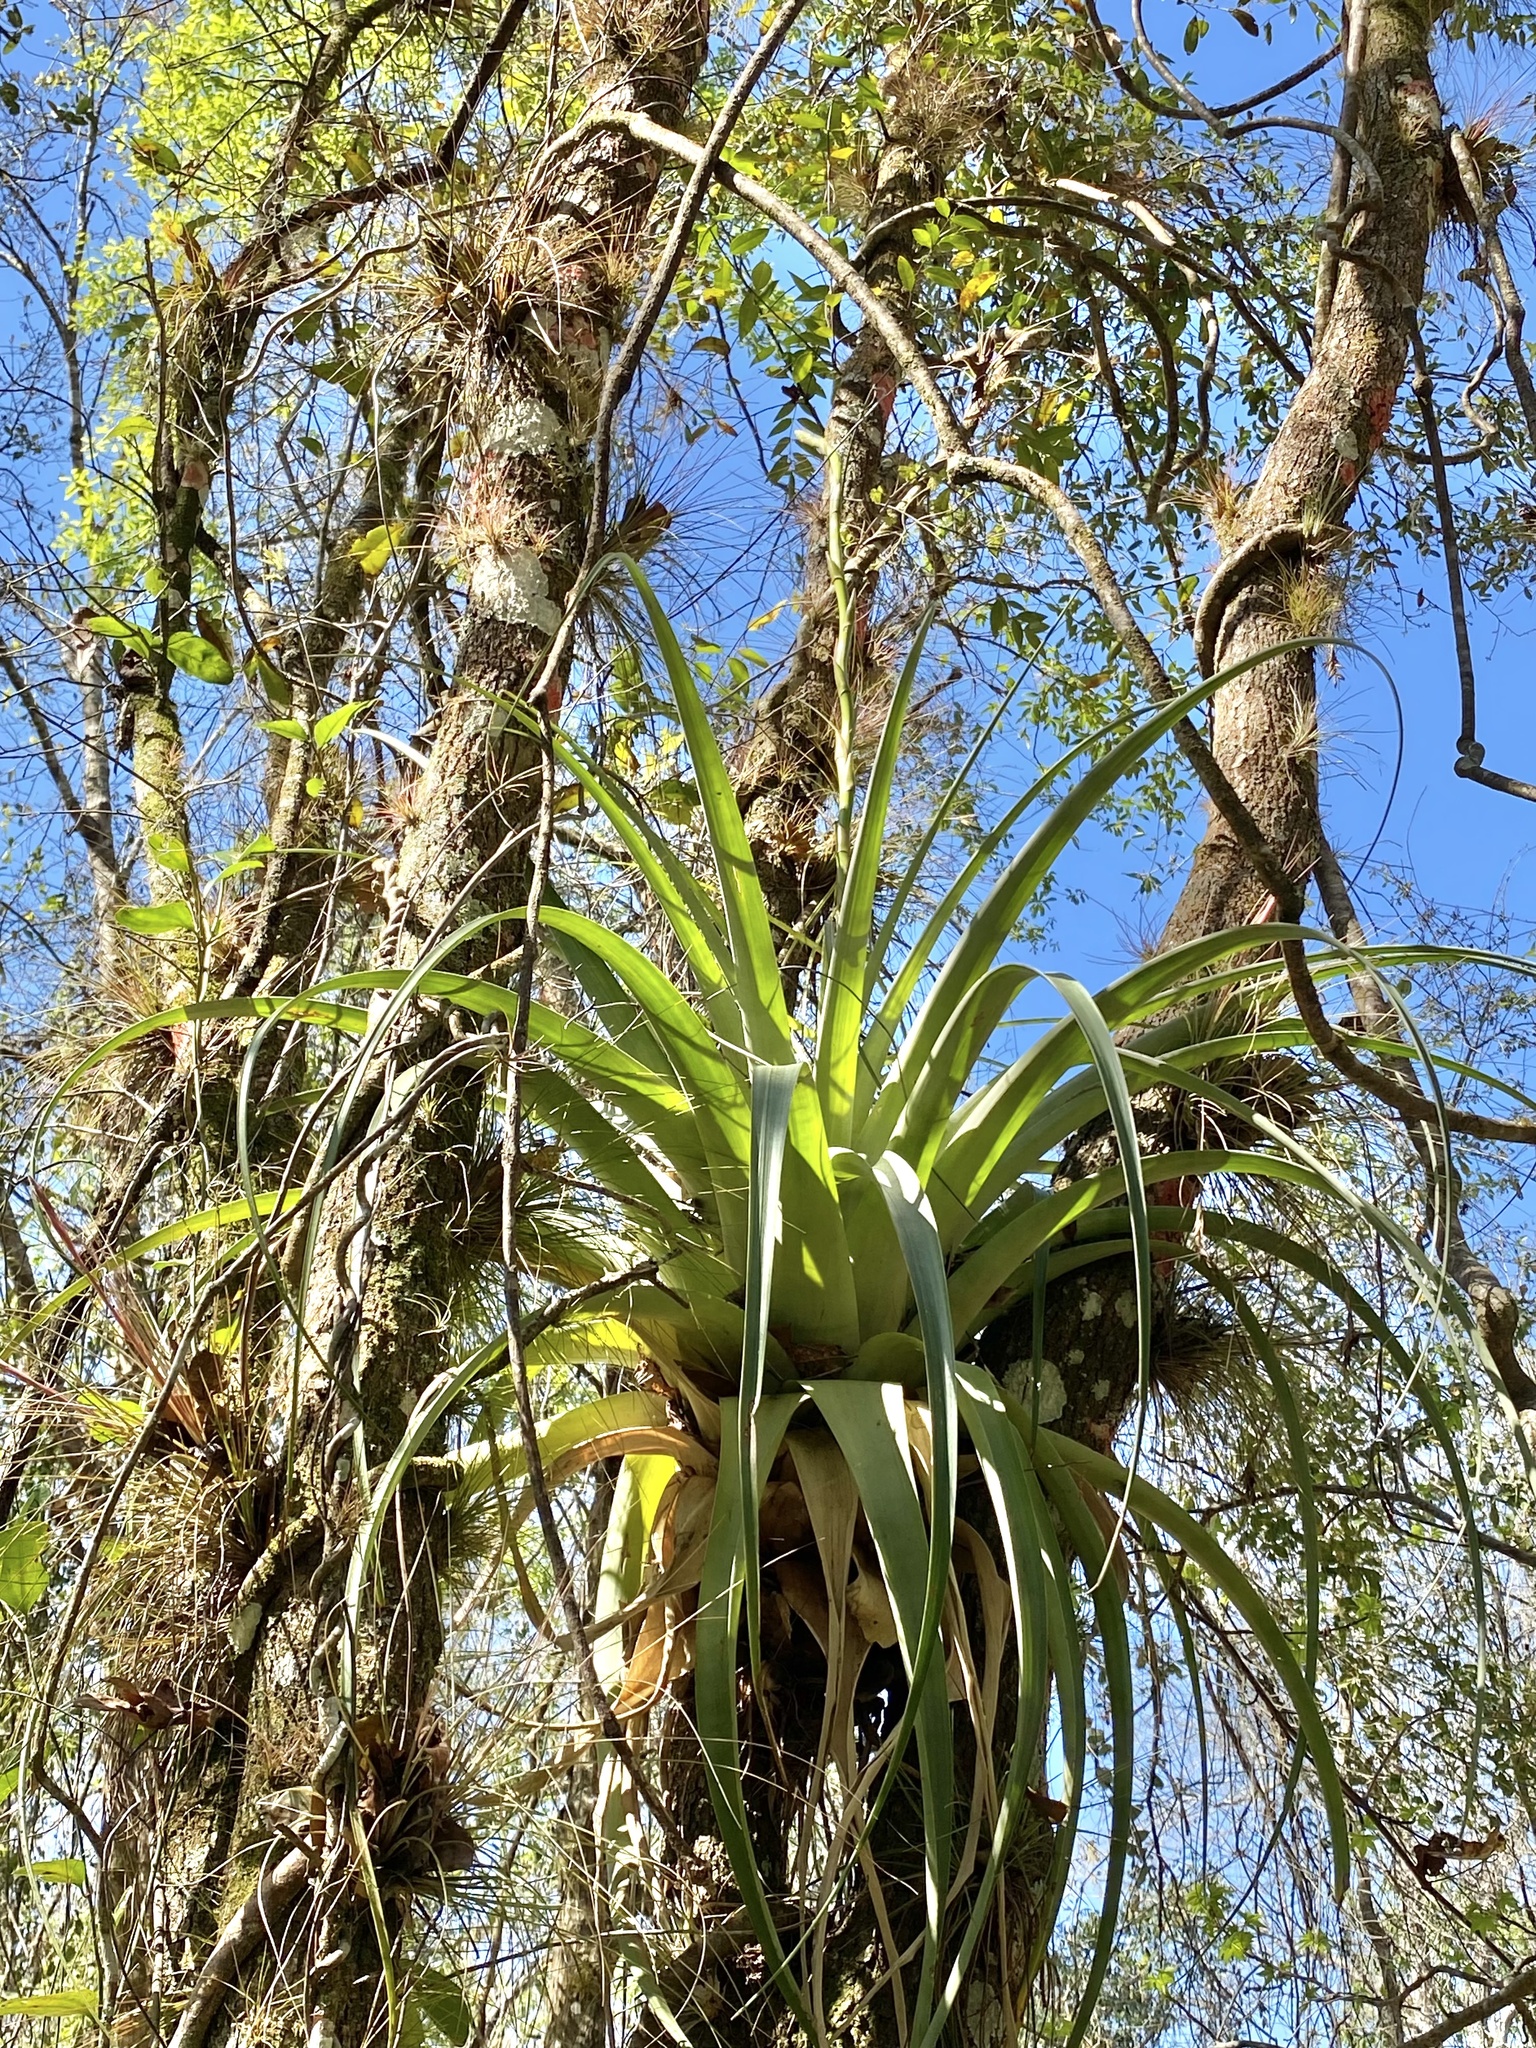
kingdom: Plantae
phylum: Tracheophyta
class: Liliopsida
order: Poales
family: Bromeliaceae
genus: Tillandsia
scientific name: Tillandsia utriculata
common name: Wild pine
